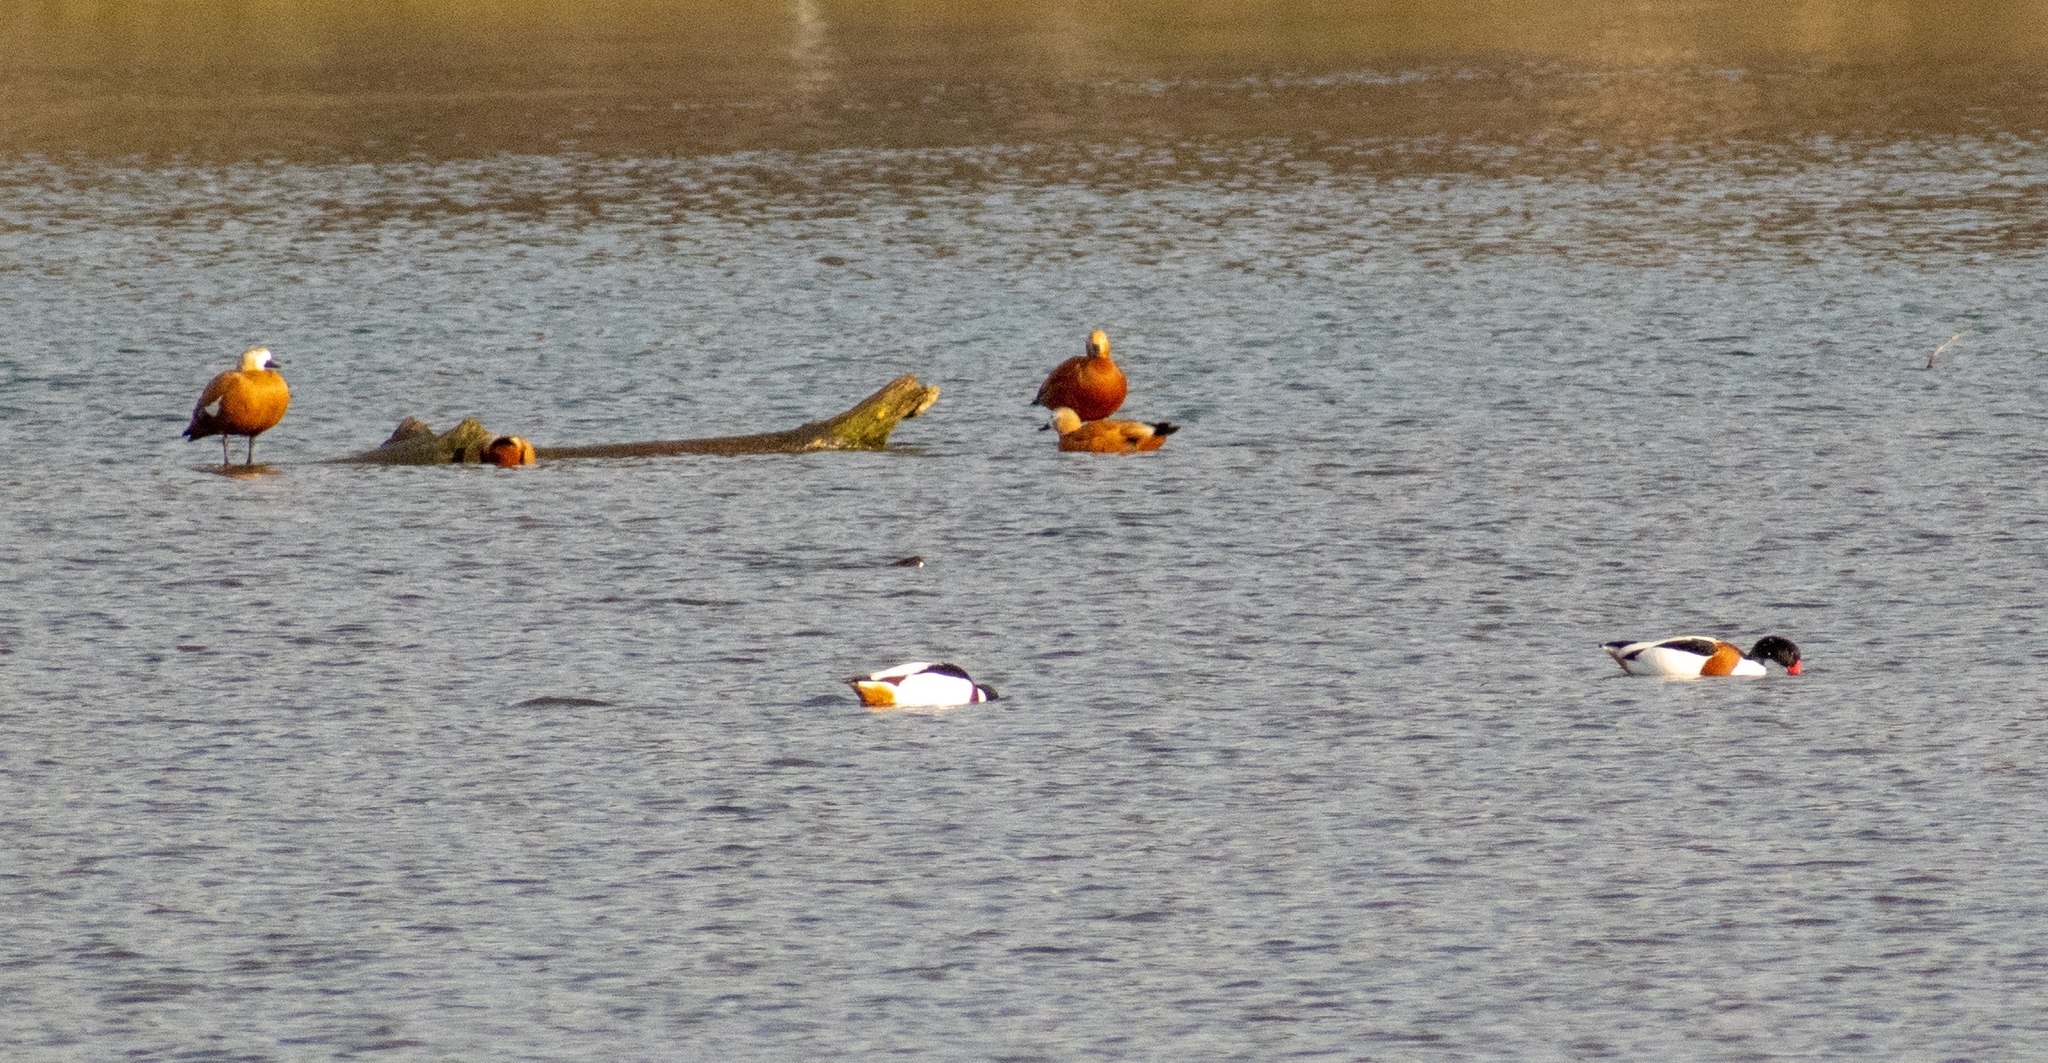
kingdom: Animalia
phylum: Chordata
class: Aves
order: Anseriformes
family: Anatidae
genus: Tadorna
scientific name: Tadorna tadorna
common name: Common shelduck
